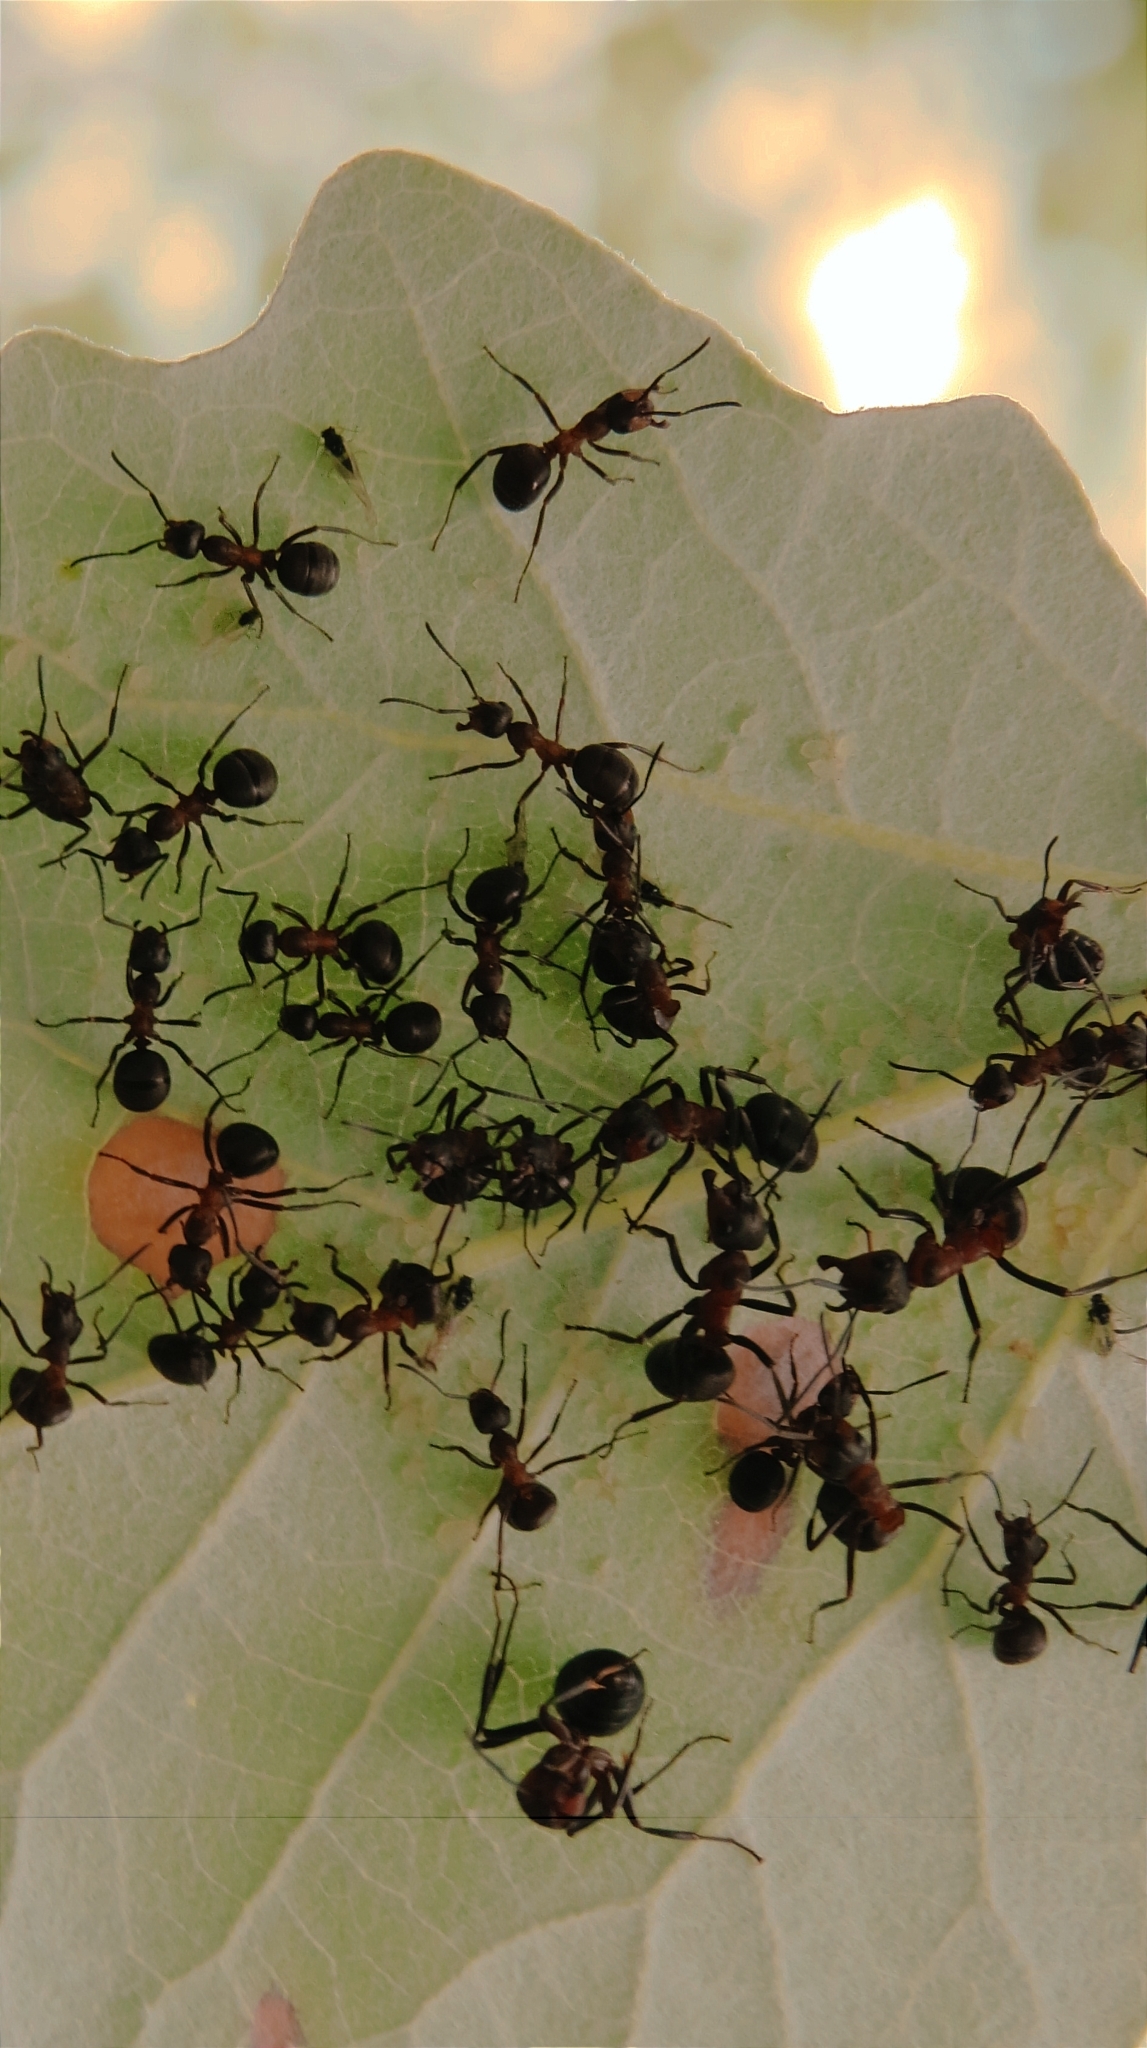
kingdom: Animalia
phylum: Arthropoda
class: Insecta
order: Hymenoptera
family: Formicidae
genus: Formica
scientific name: Formica
